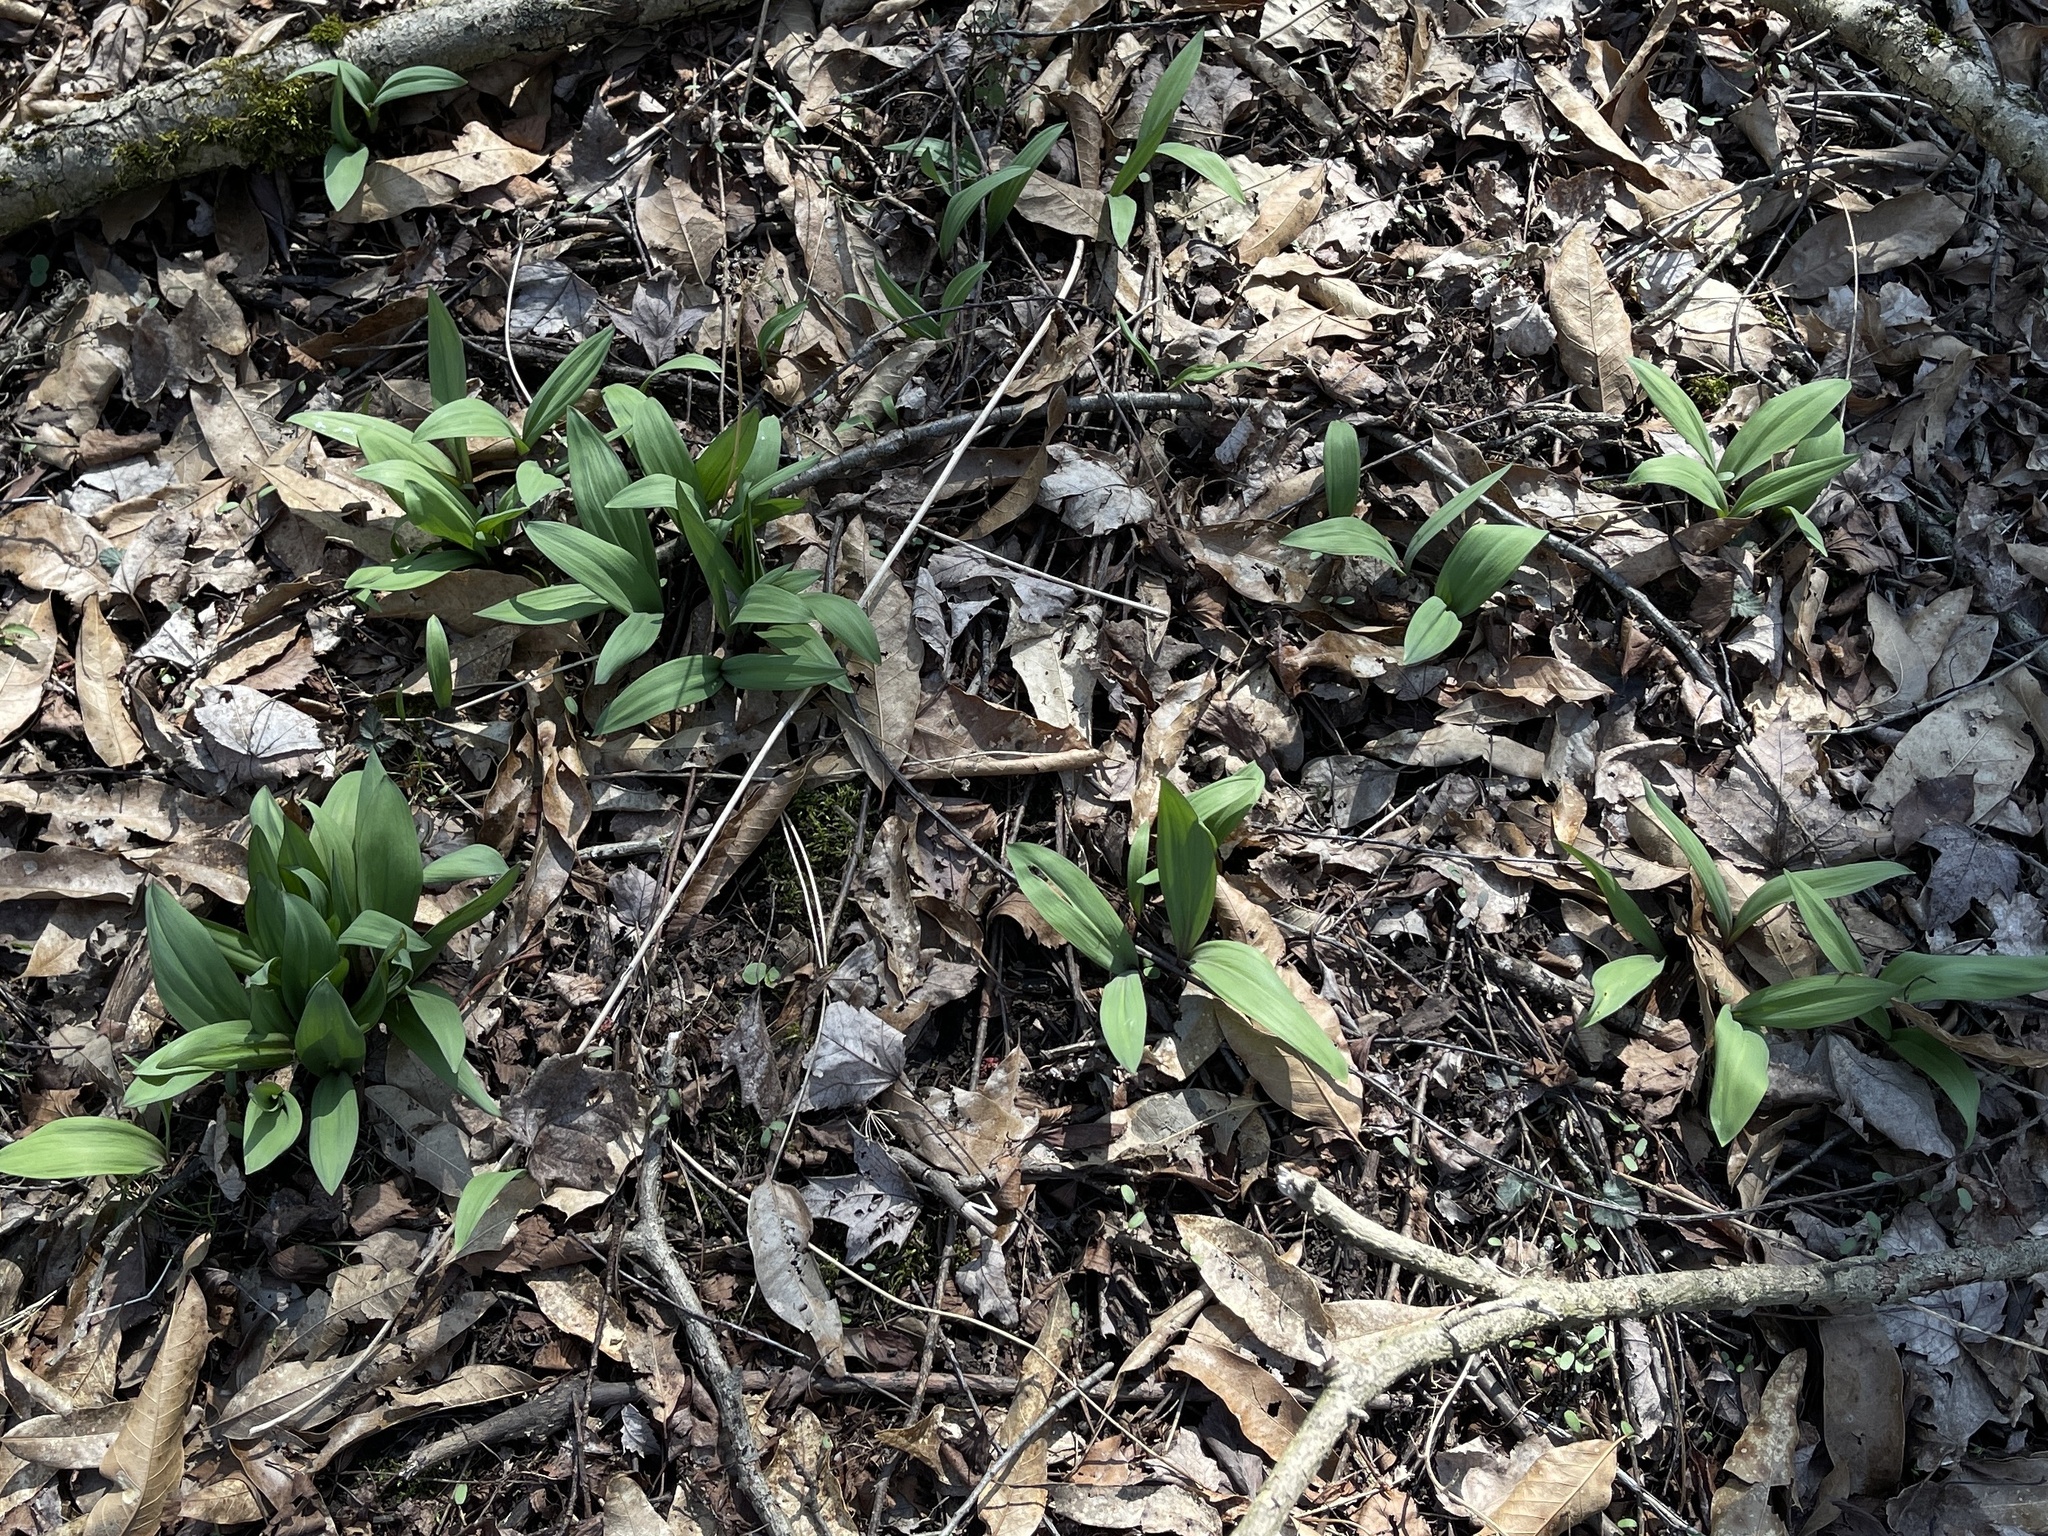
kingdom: Plantae
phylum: Tracheophyta
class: Liliopsida
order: Asparagales
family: Amaryllidaceae
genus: Allium
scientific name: Allium tricoccum
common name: Ramp
